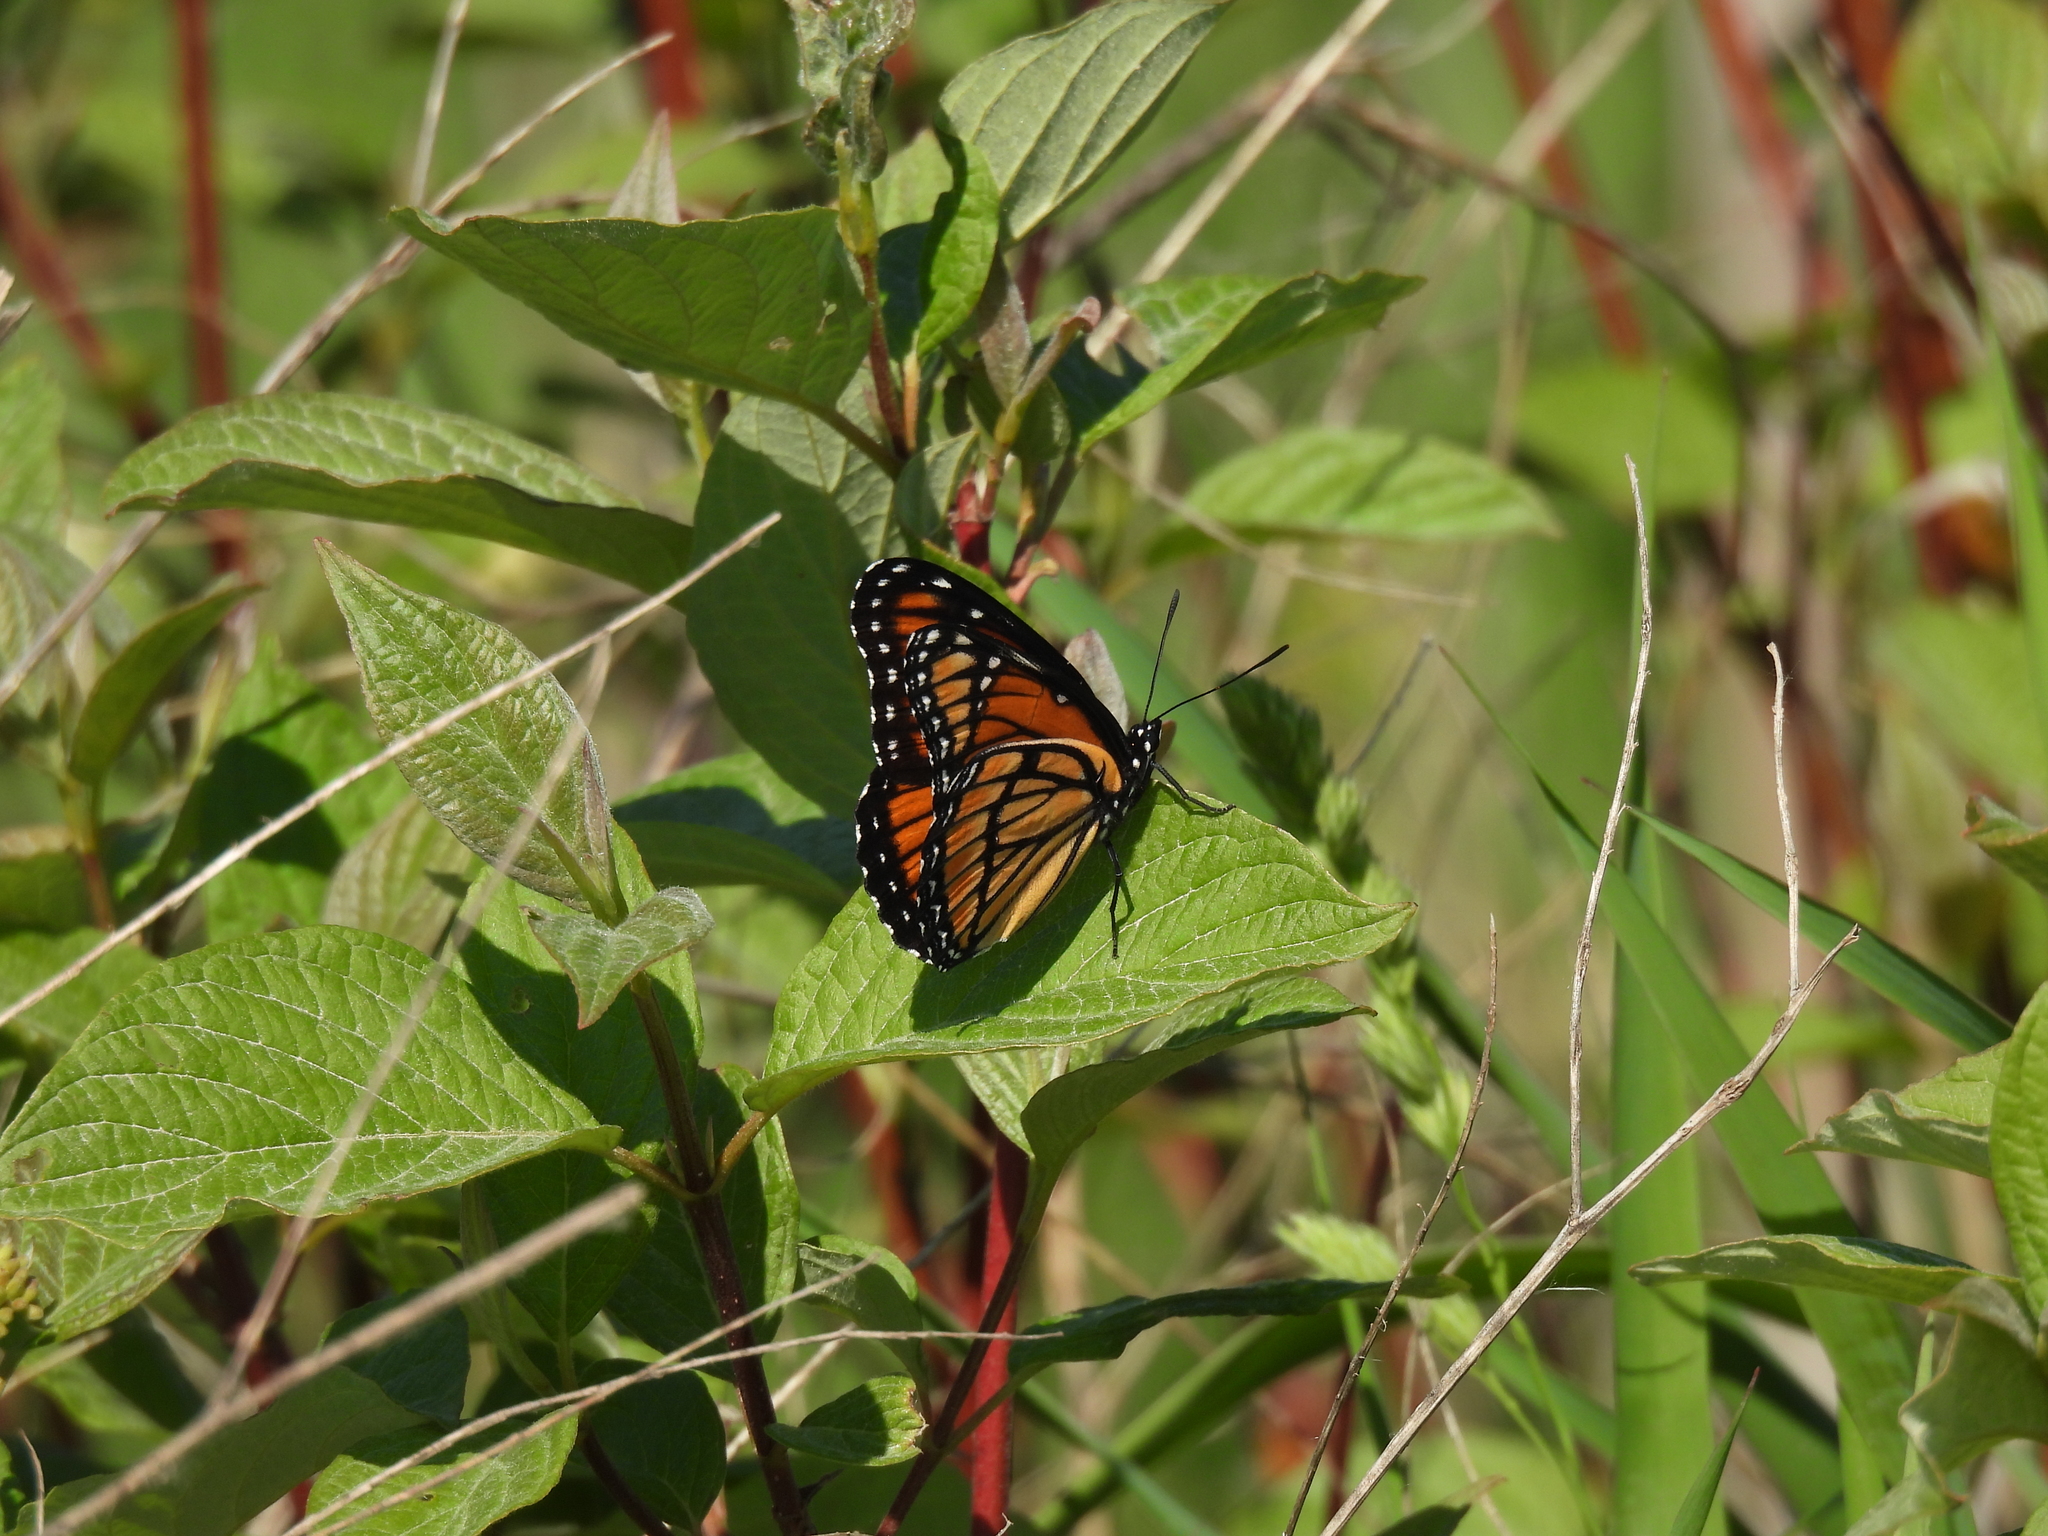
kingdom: Animalia
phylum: Arthropoda
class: Insecta
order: Lepidoptera
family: Nymphalidae
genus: Limenitis
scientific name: Limenitis archippus
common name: Viceroy
